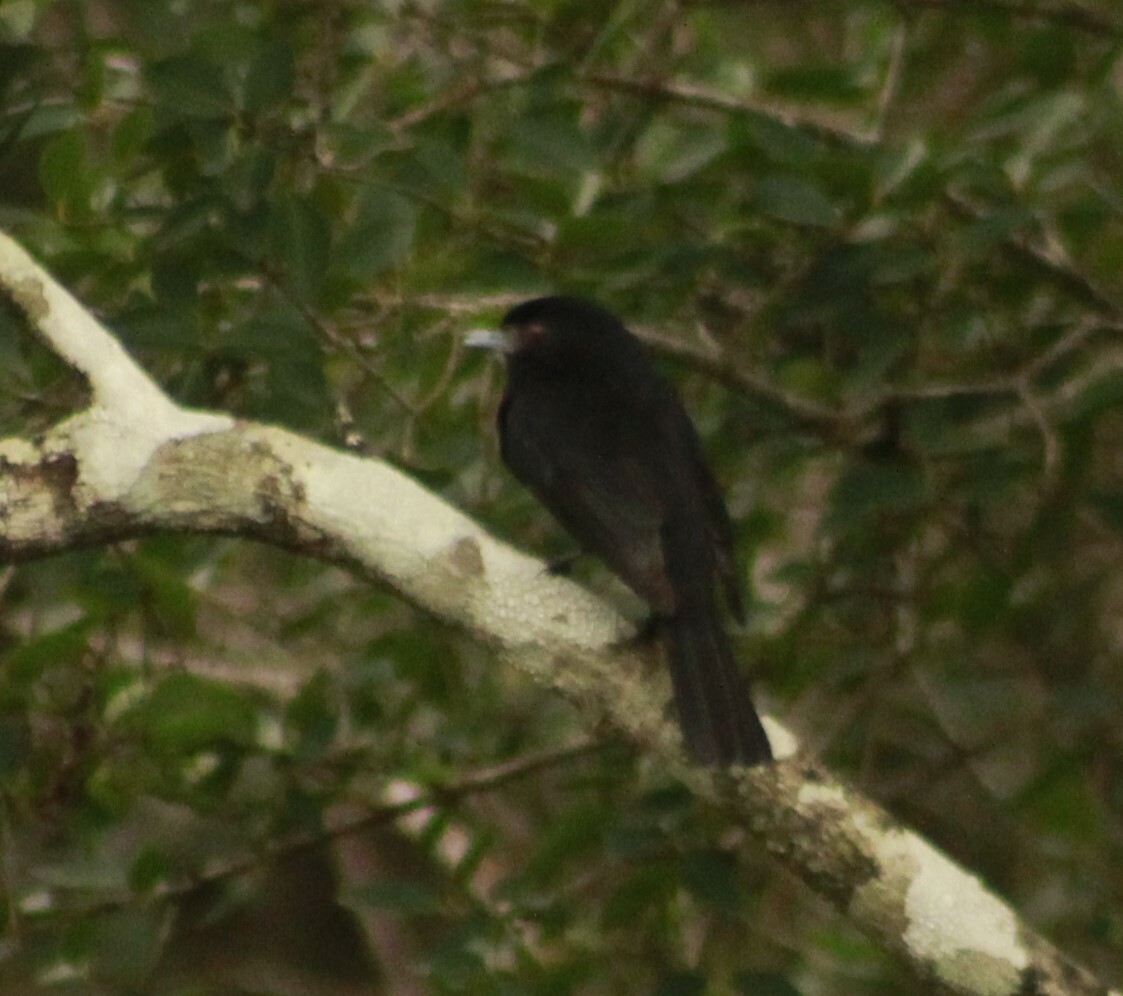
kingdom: Animalia
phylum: Chordata
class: Aves
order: Passeriformes
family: Tyrannidae
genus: Knipolegus
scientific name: Knipolegus cyanirostris
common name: Blue-billed black tyrant
